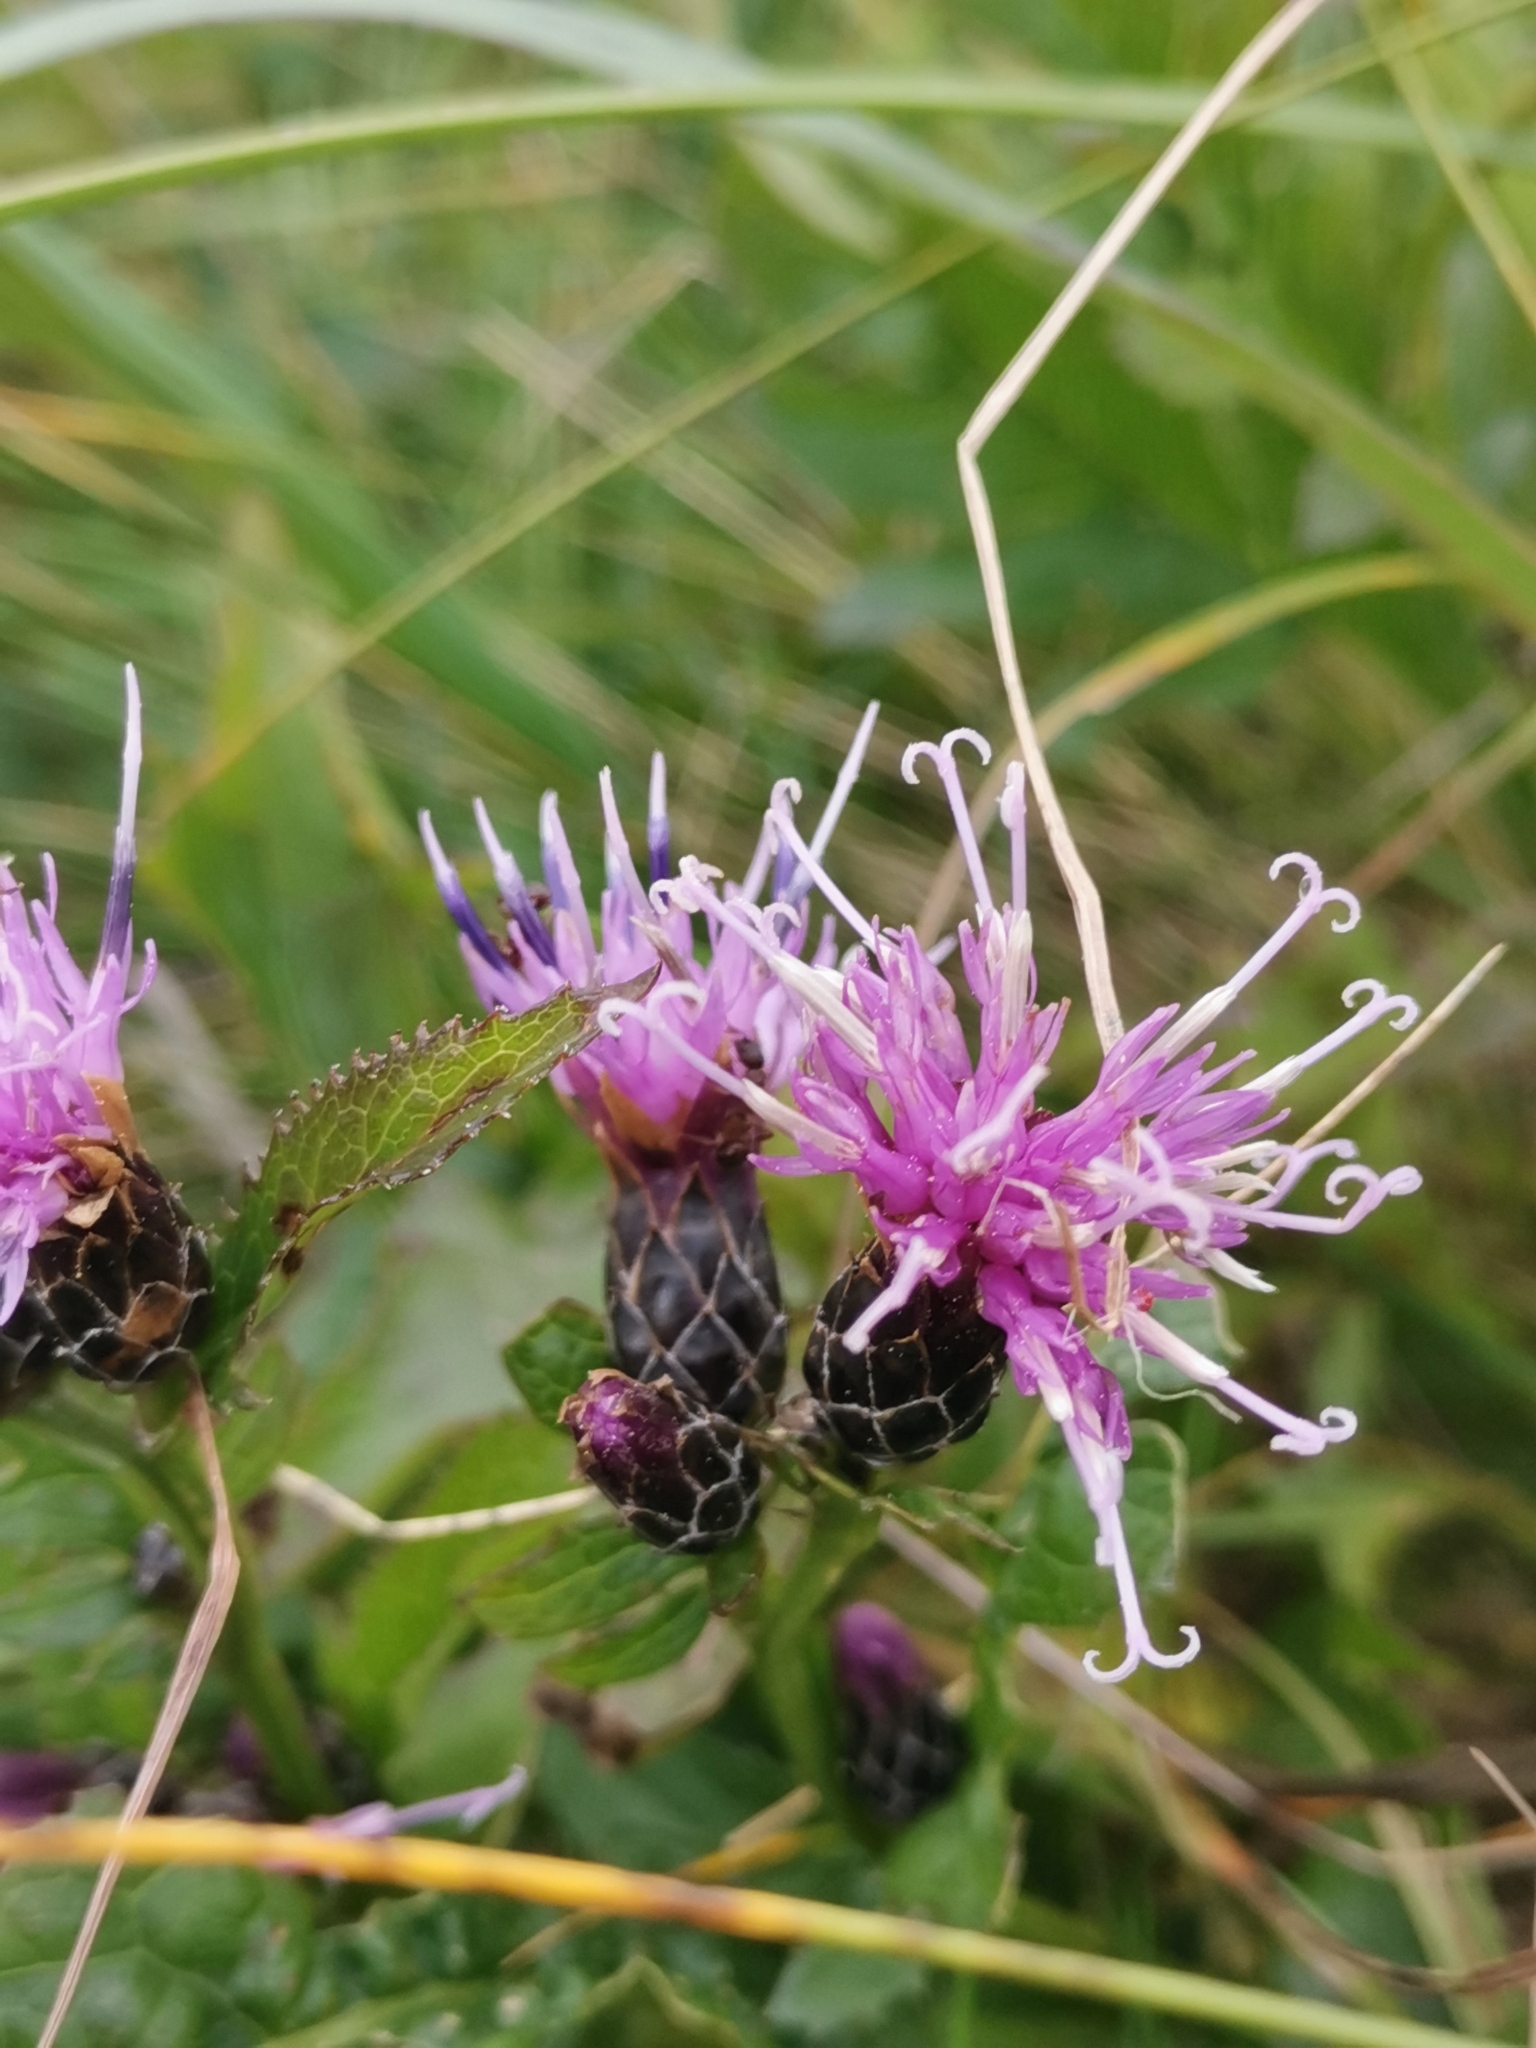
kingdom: Plantae
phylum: Tracheophyta
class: Magnoliopsida
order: Asterales
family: Asteraceae
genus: Serratula
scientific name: Serratula tinctoria
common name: Saw-wort
